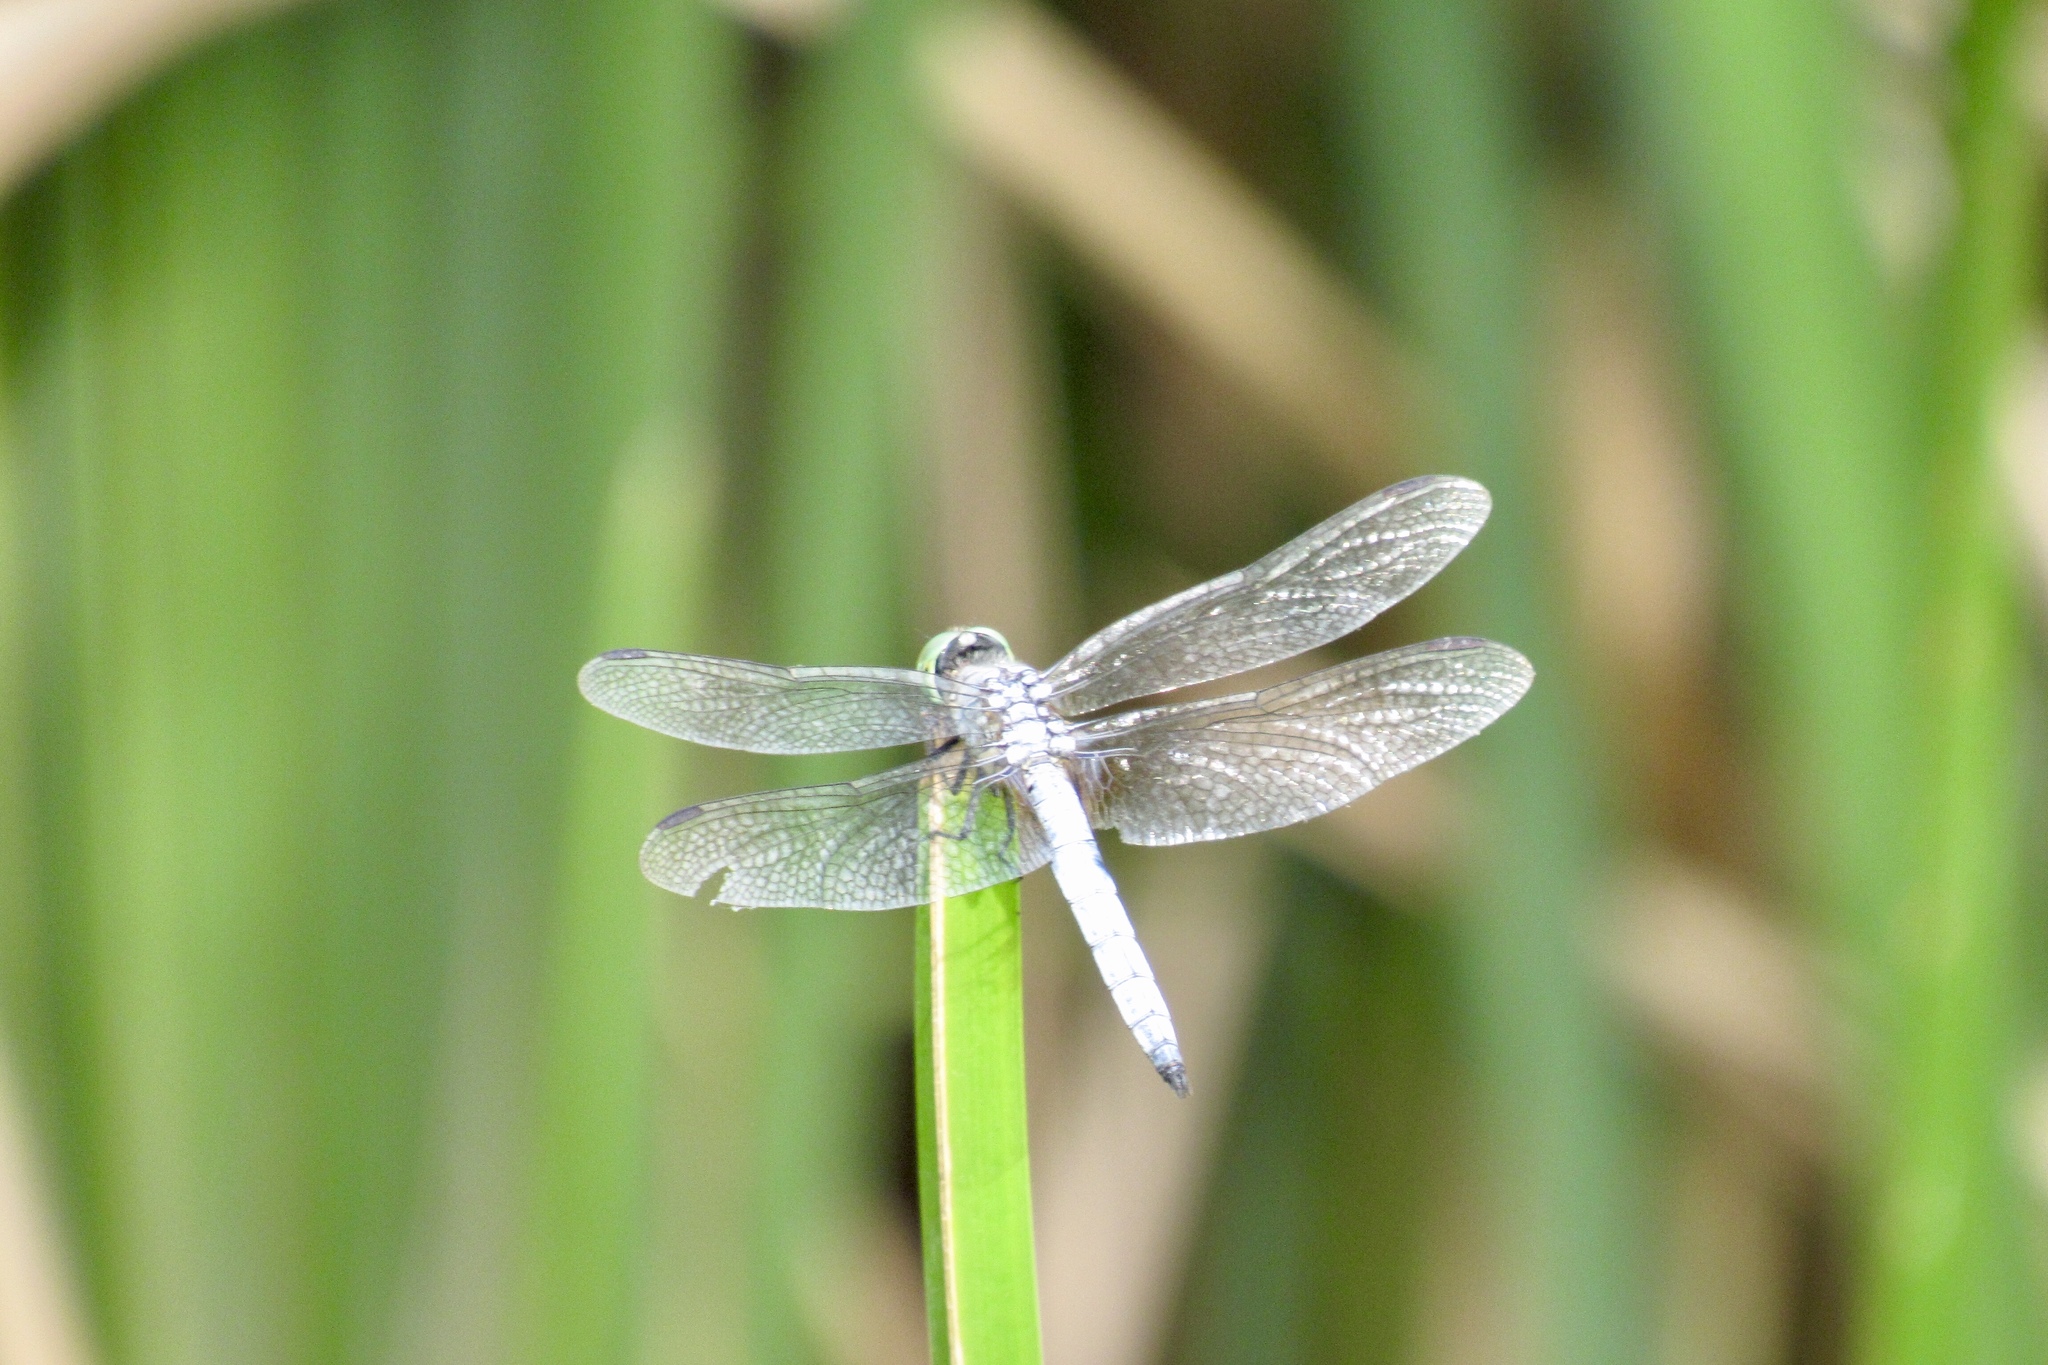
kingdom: Animalia
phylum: Arthropoda
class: Insecta
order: Odonata
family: Libellulidae
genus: Pachydiplax
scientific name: Pachydiplax longipennis
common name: Blue dasher
